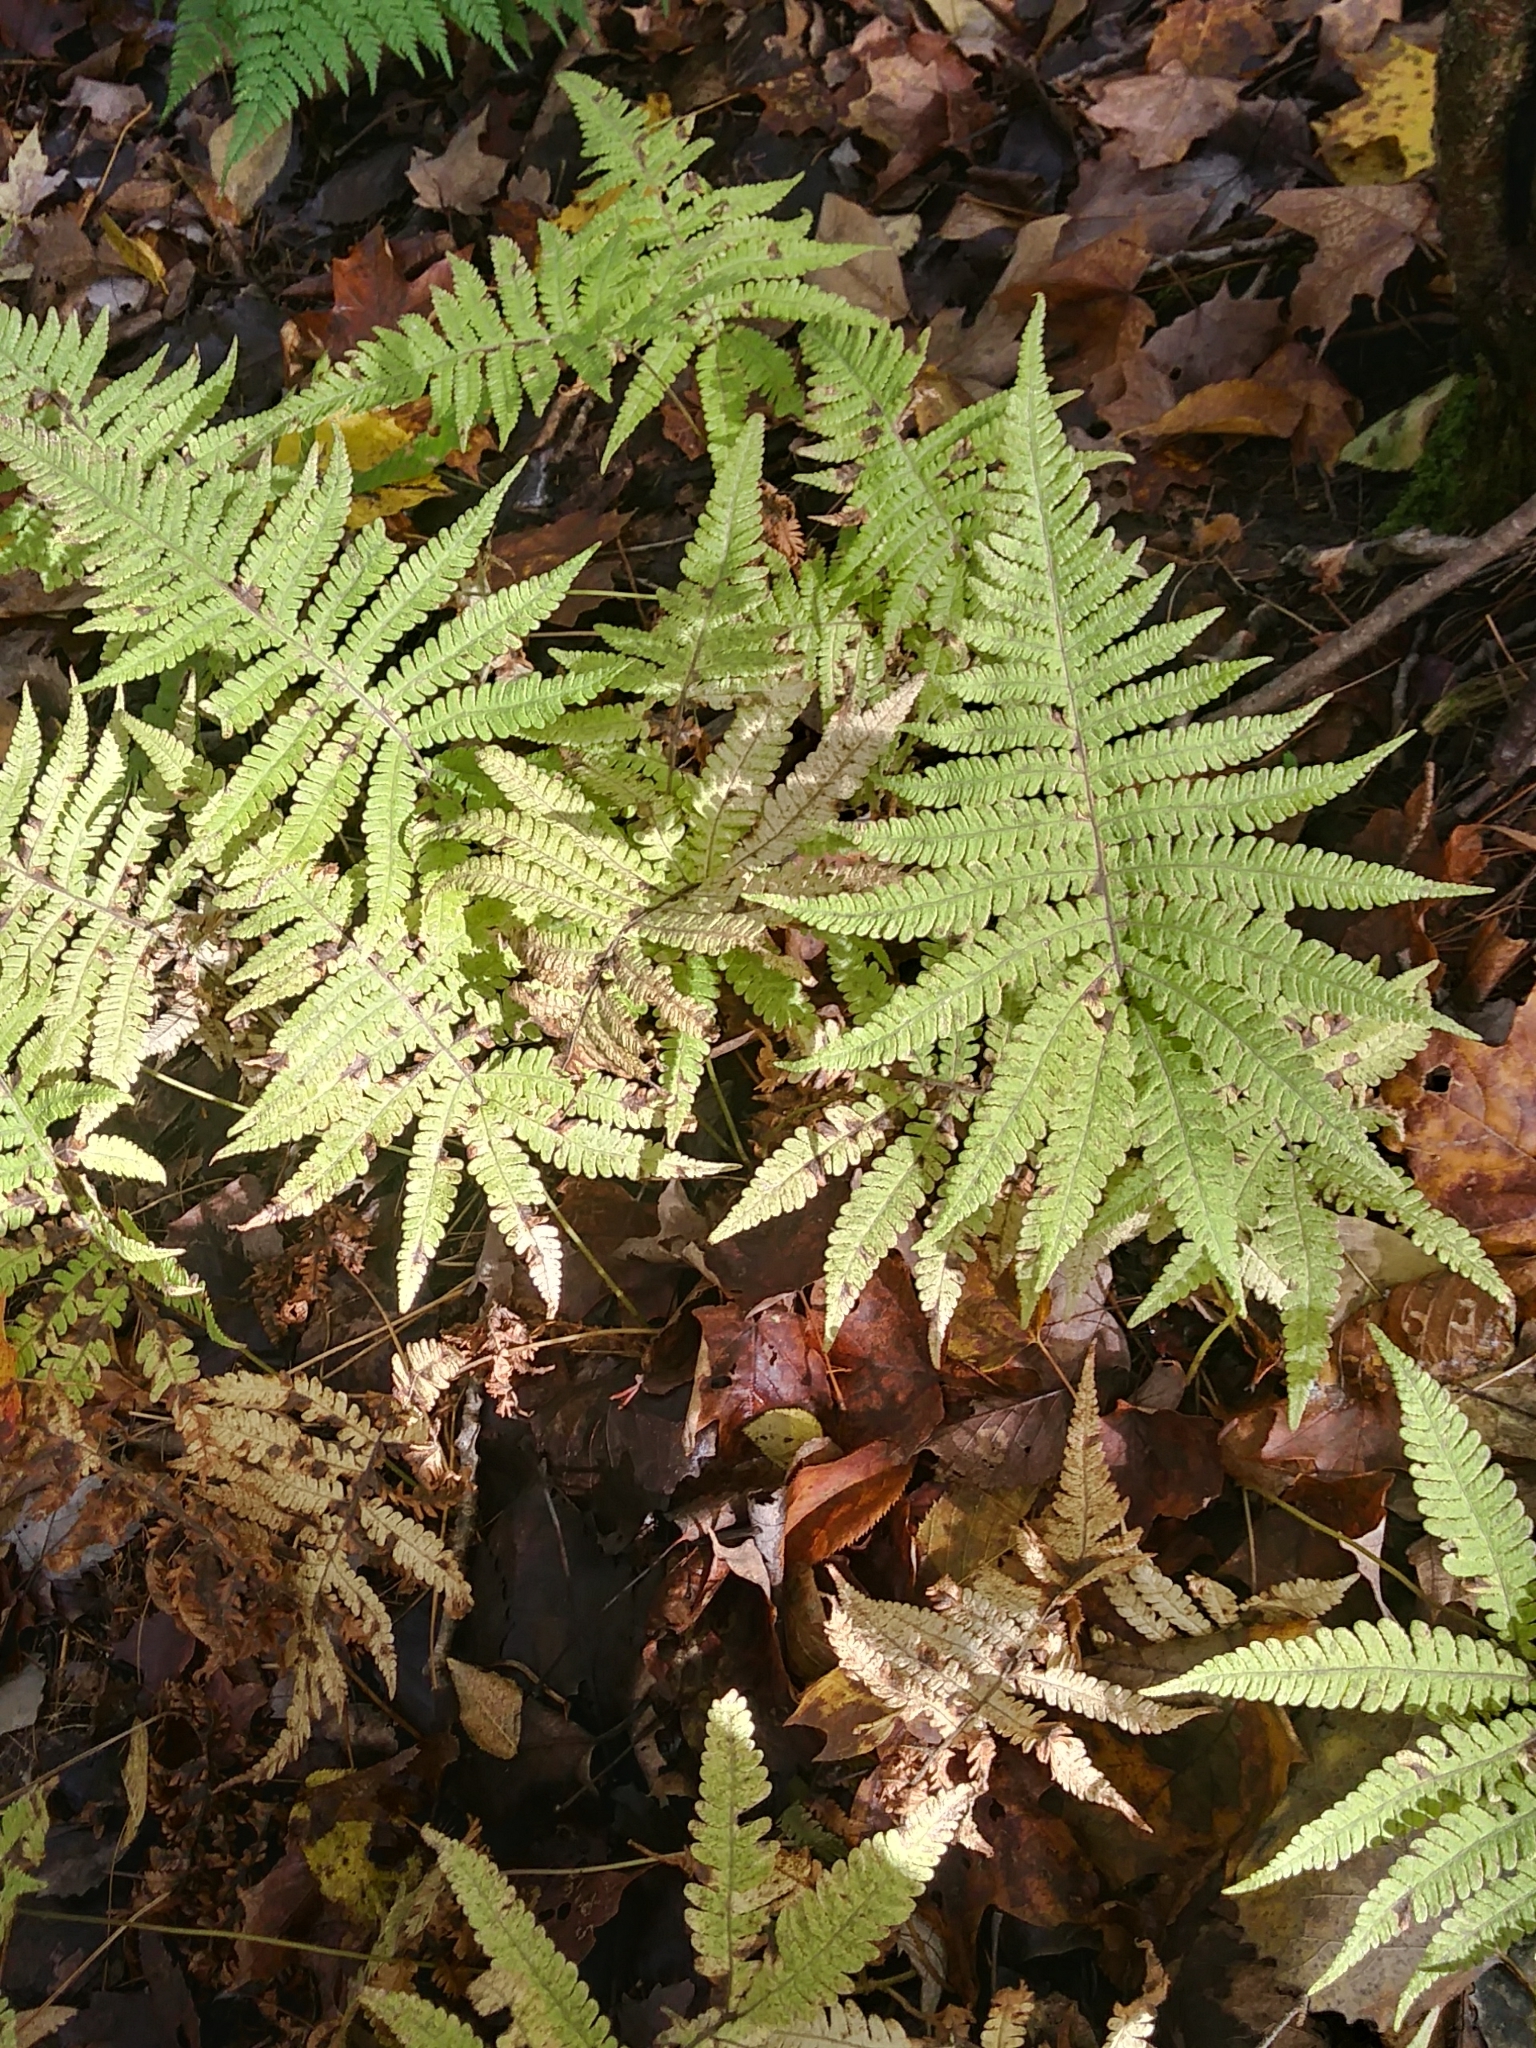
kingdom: Plantae
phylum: Tracheophyta
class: Polypodiopsida
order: Polypodiales
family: Thelypteridaceae
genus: Phegopteris
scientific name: Phegopteris connectilis
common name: Beech fern
